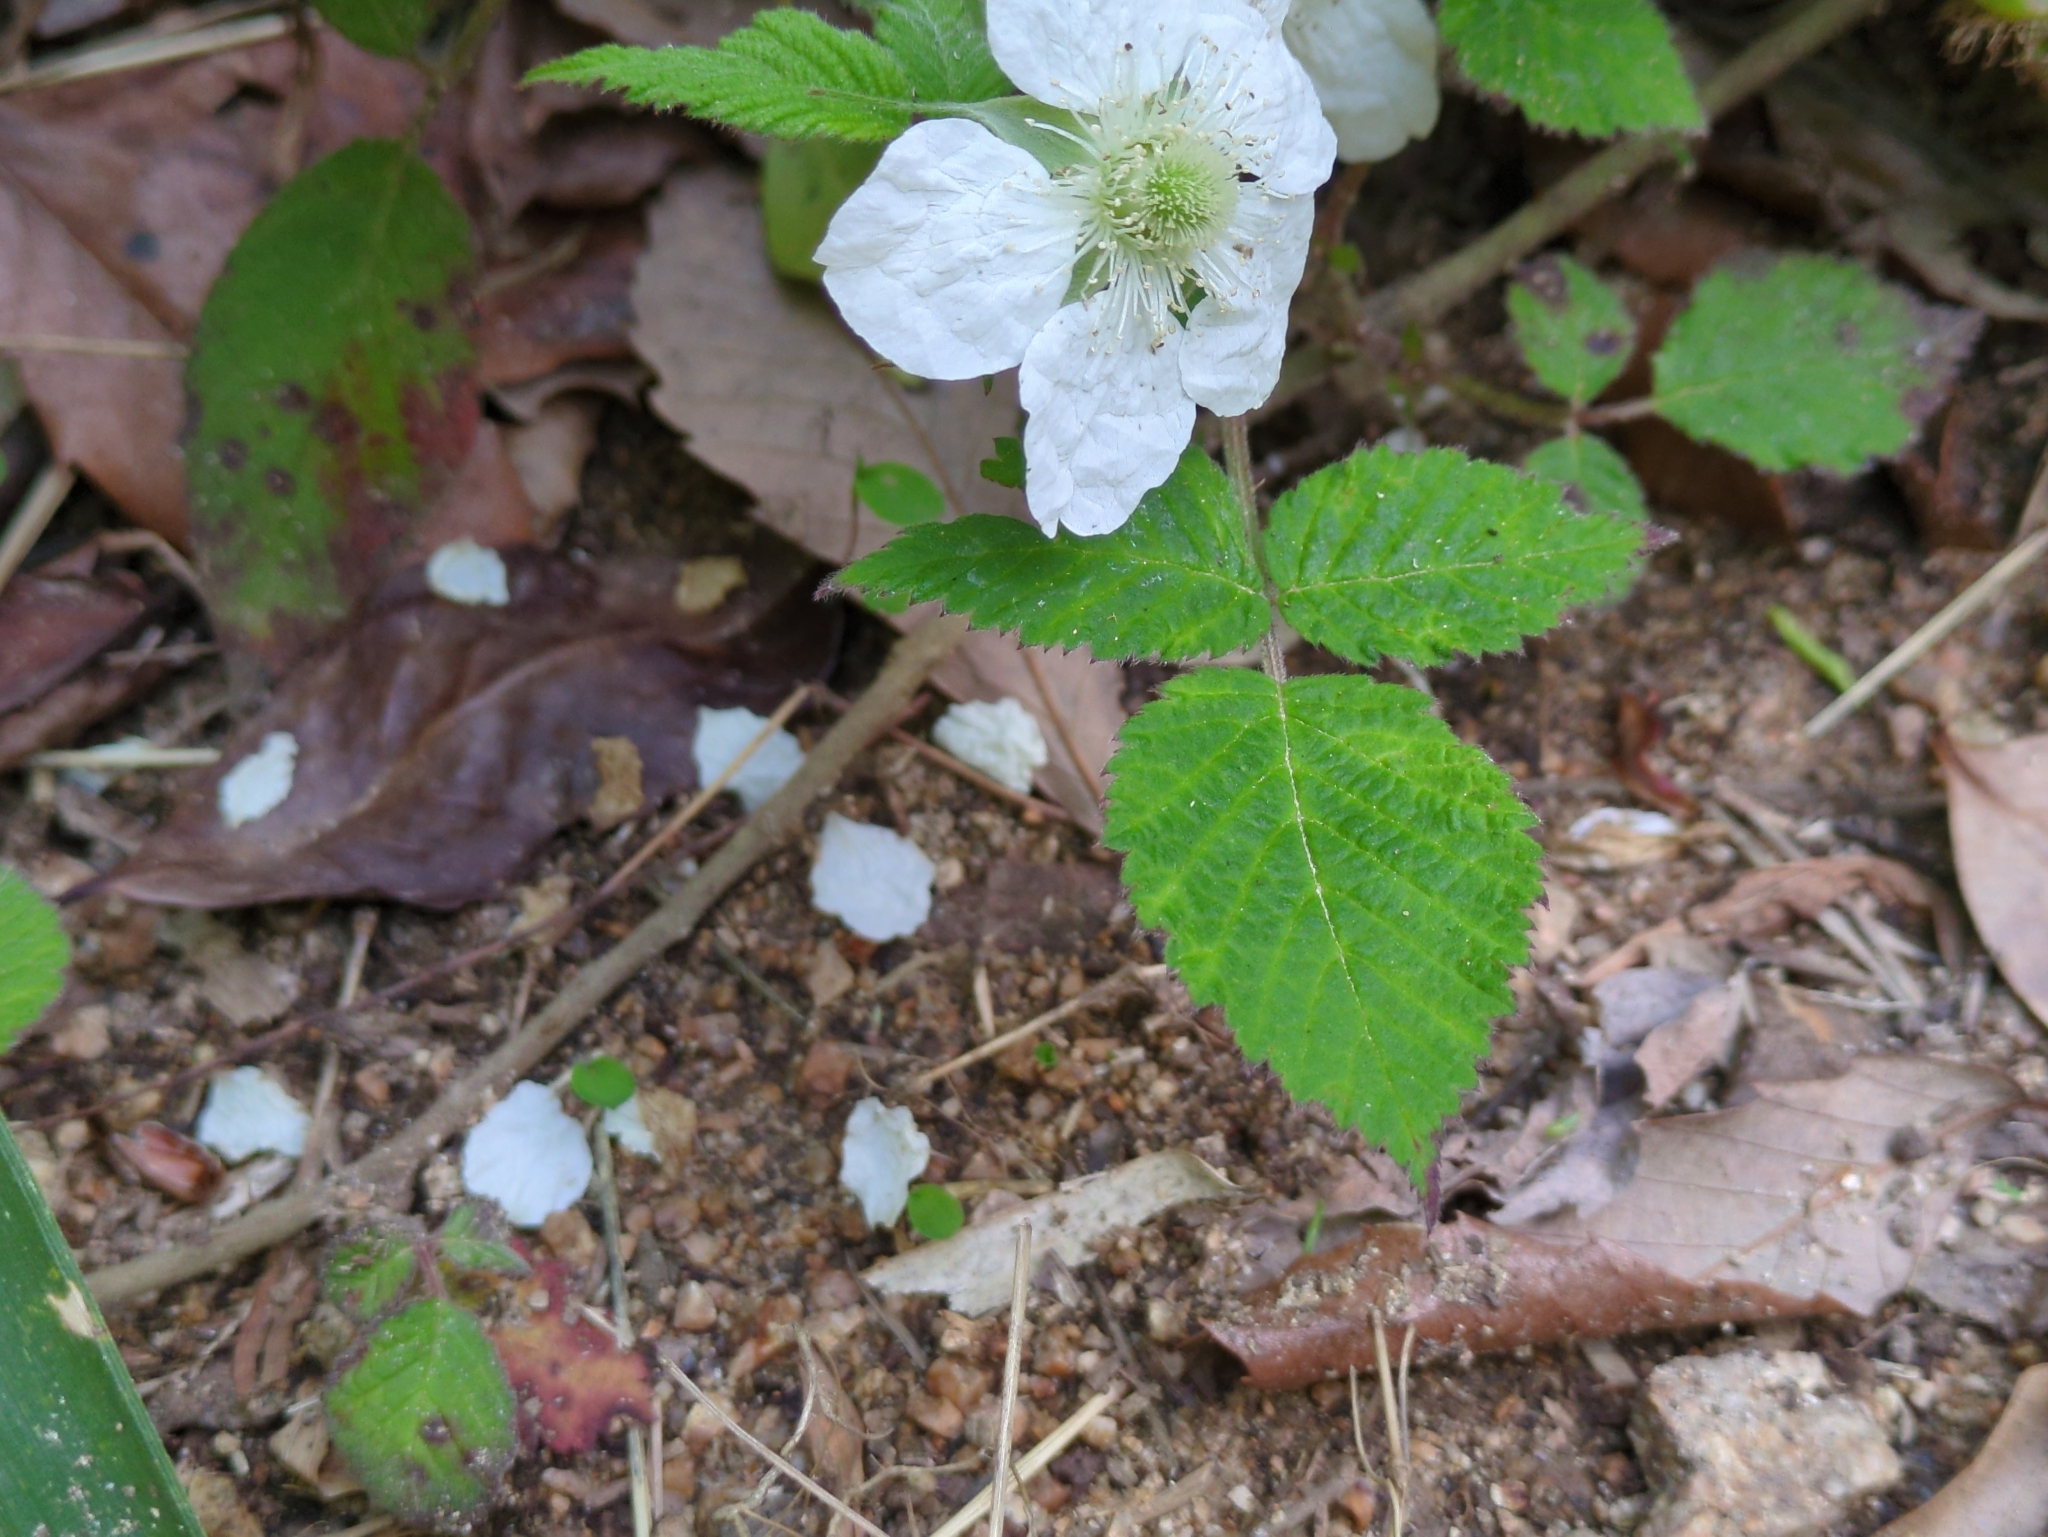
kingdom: Plantae
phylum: Tracheophyta
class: Magnoliopsida
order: Rosales
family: Rosaceae
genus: Rubus
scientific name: Rubus hirsutus
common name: Hirsute raspberry
